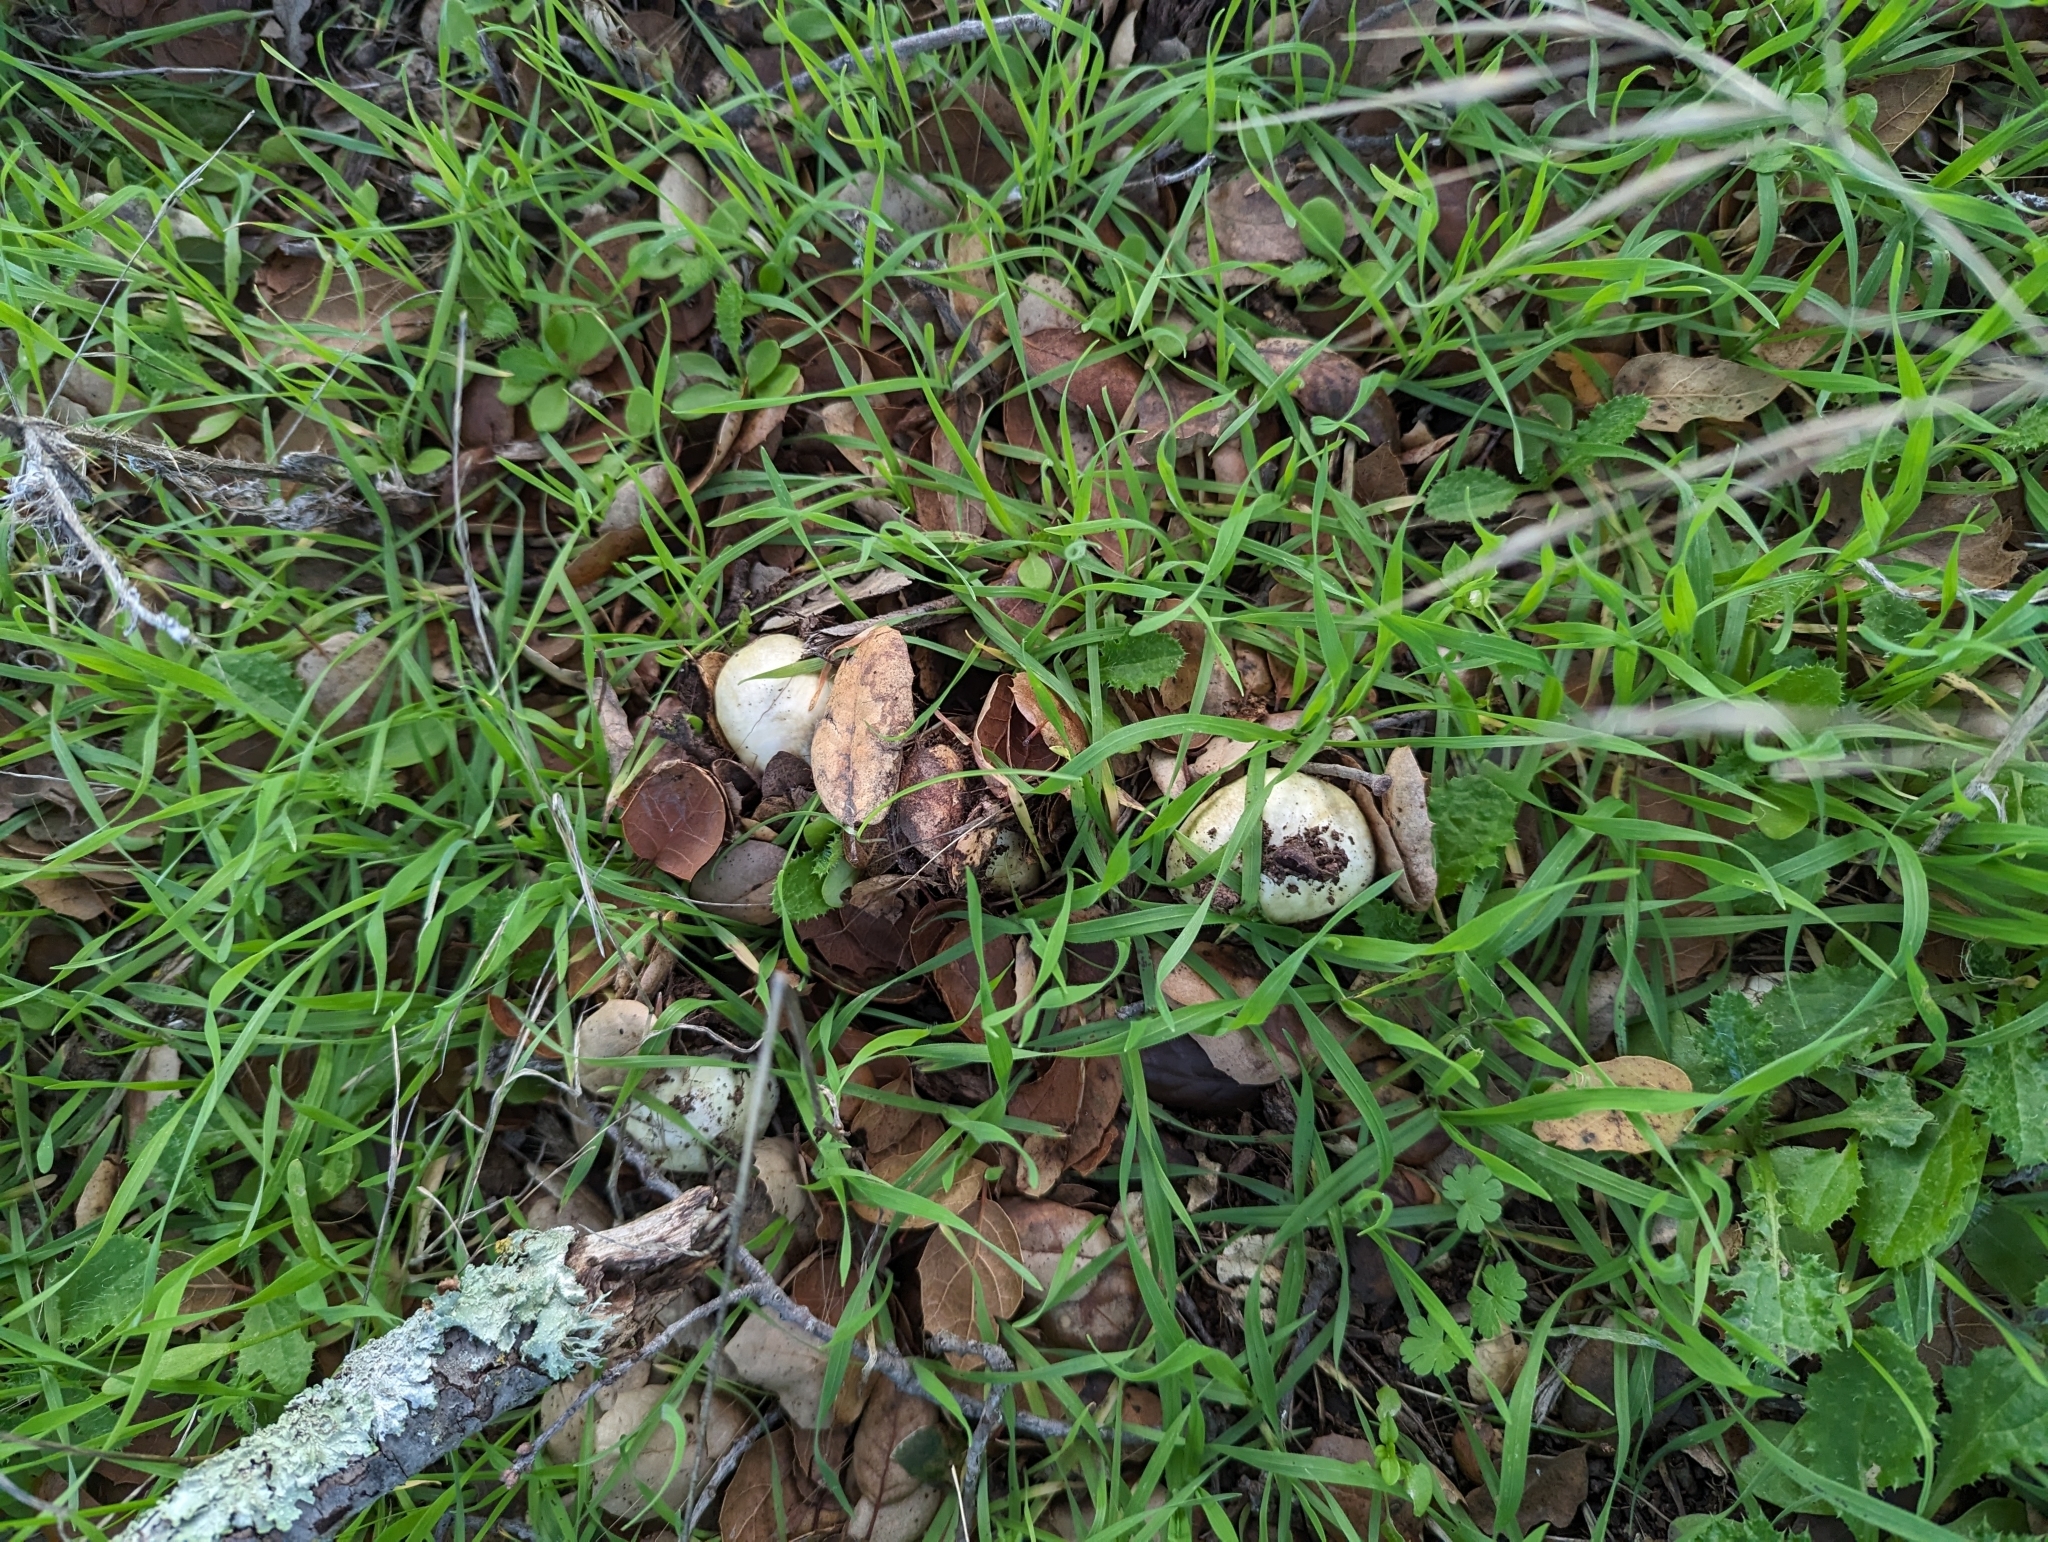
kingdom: Fungi
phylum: Basidiomycota
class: Agaricomycetes
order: Agaricales
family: Amanitaceae
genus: Amanita
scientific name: Amanita phalloides
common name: Death cap
